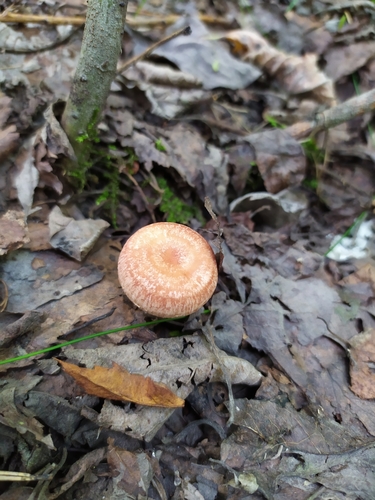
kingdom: Fungi
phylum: Basidiomycota
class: Agaricomycetes
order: Russulales
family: Russulaceae
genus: Lactarius
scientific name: Lactarius torminosus
